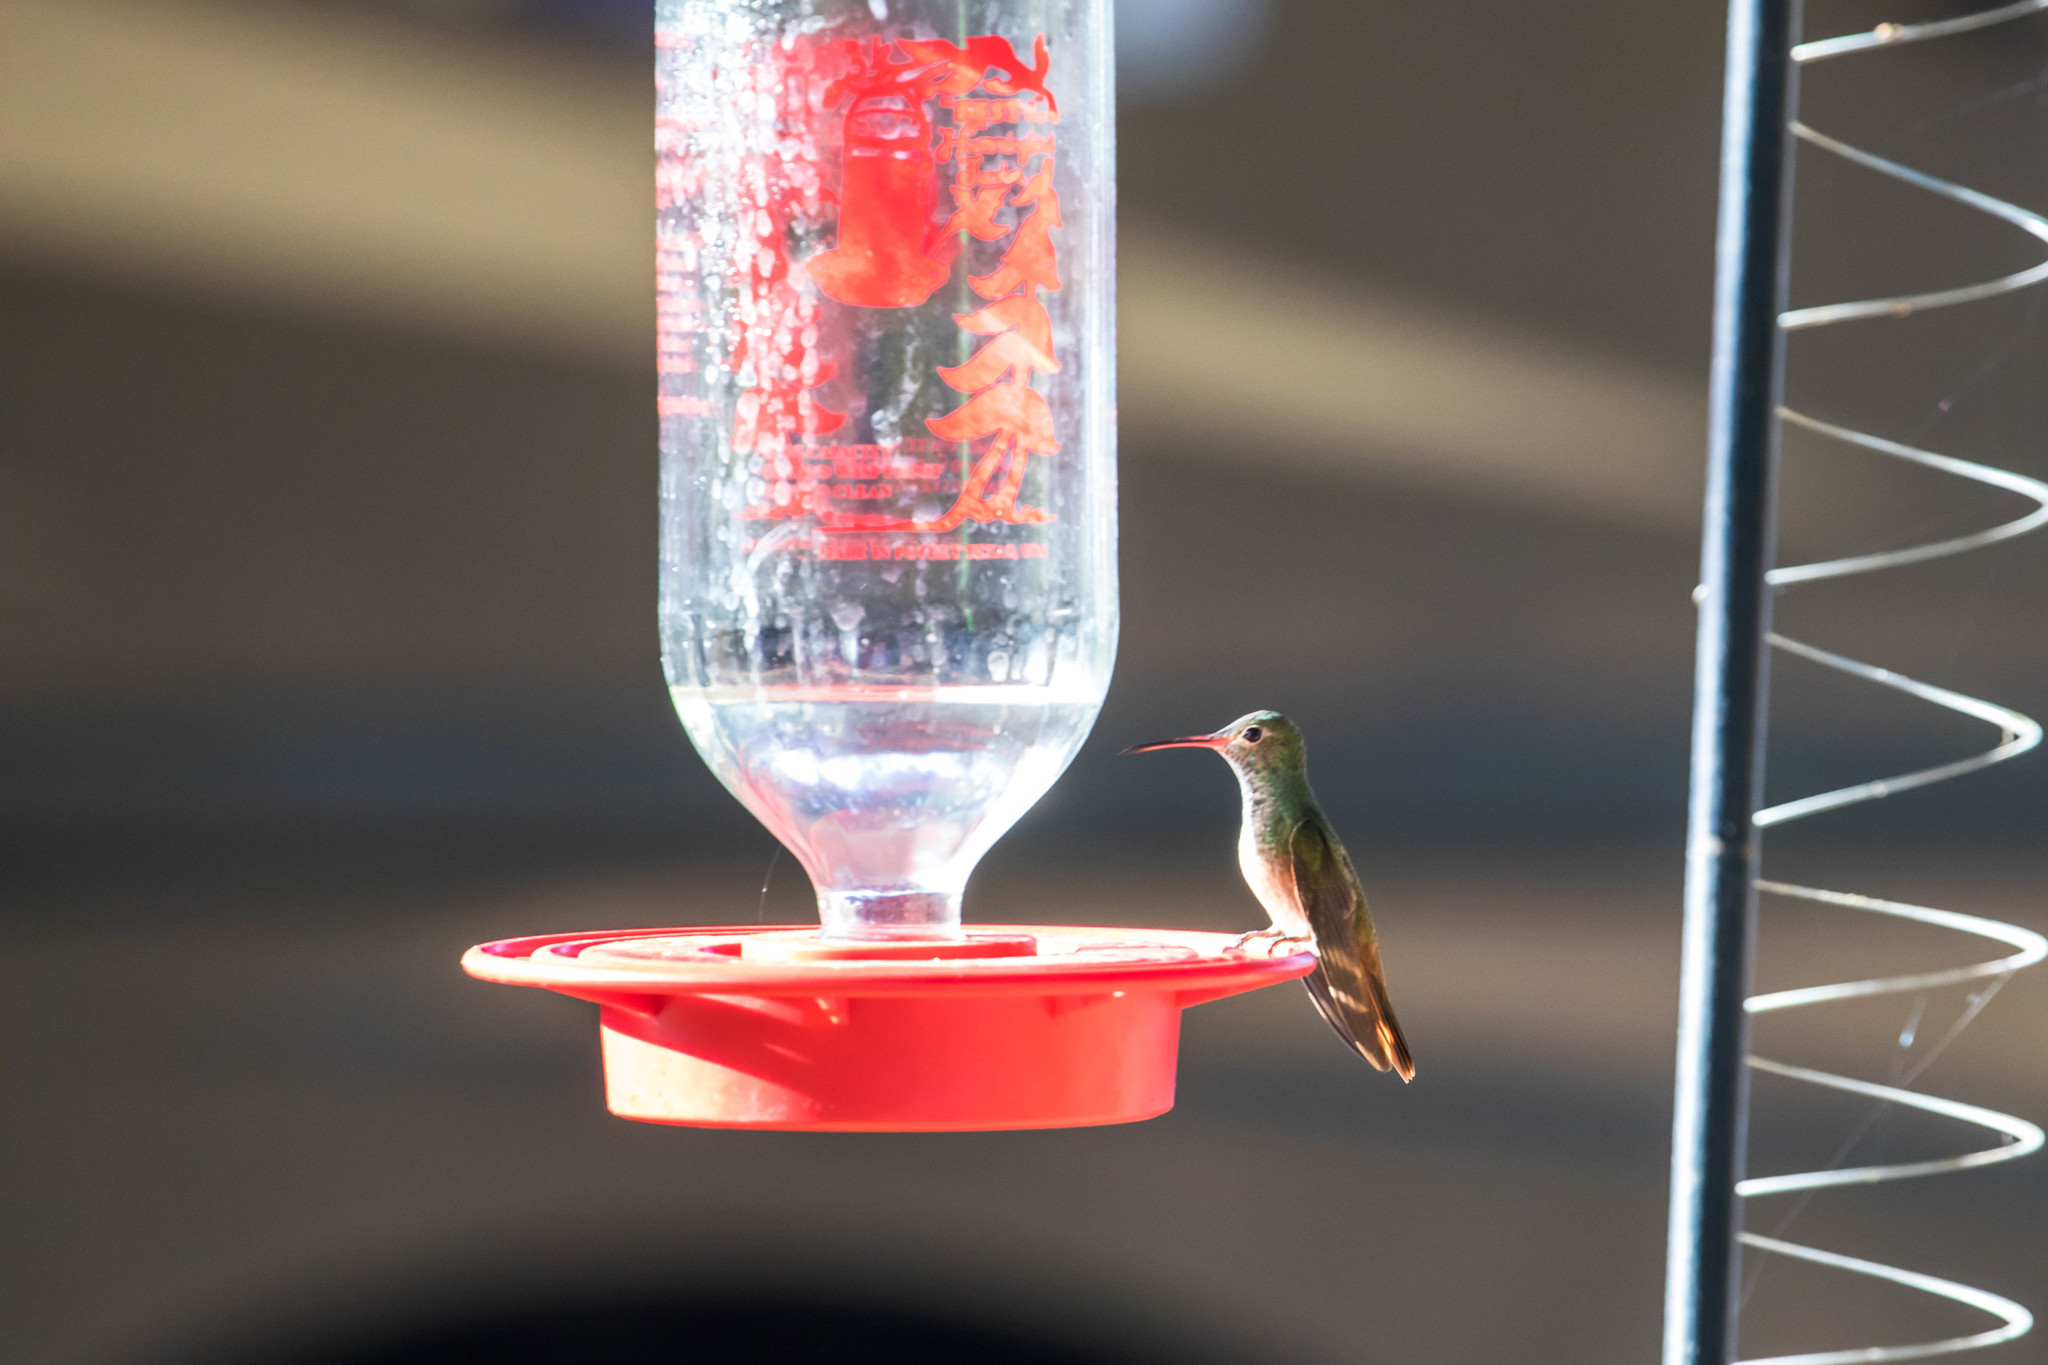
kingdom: Animalia
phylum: Chordata
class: Aves
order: Apodiformes
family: Trochilidae
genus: Amazilia
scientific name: Amazilia yucatanensis
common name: Buff-bellied hummingbird
